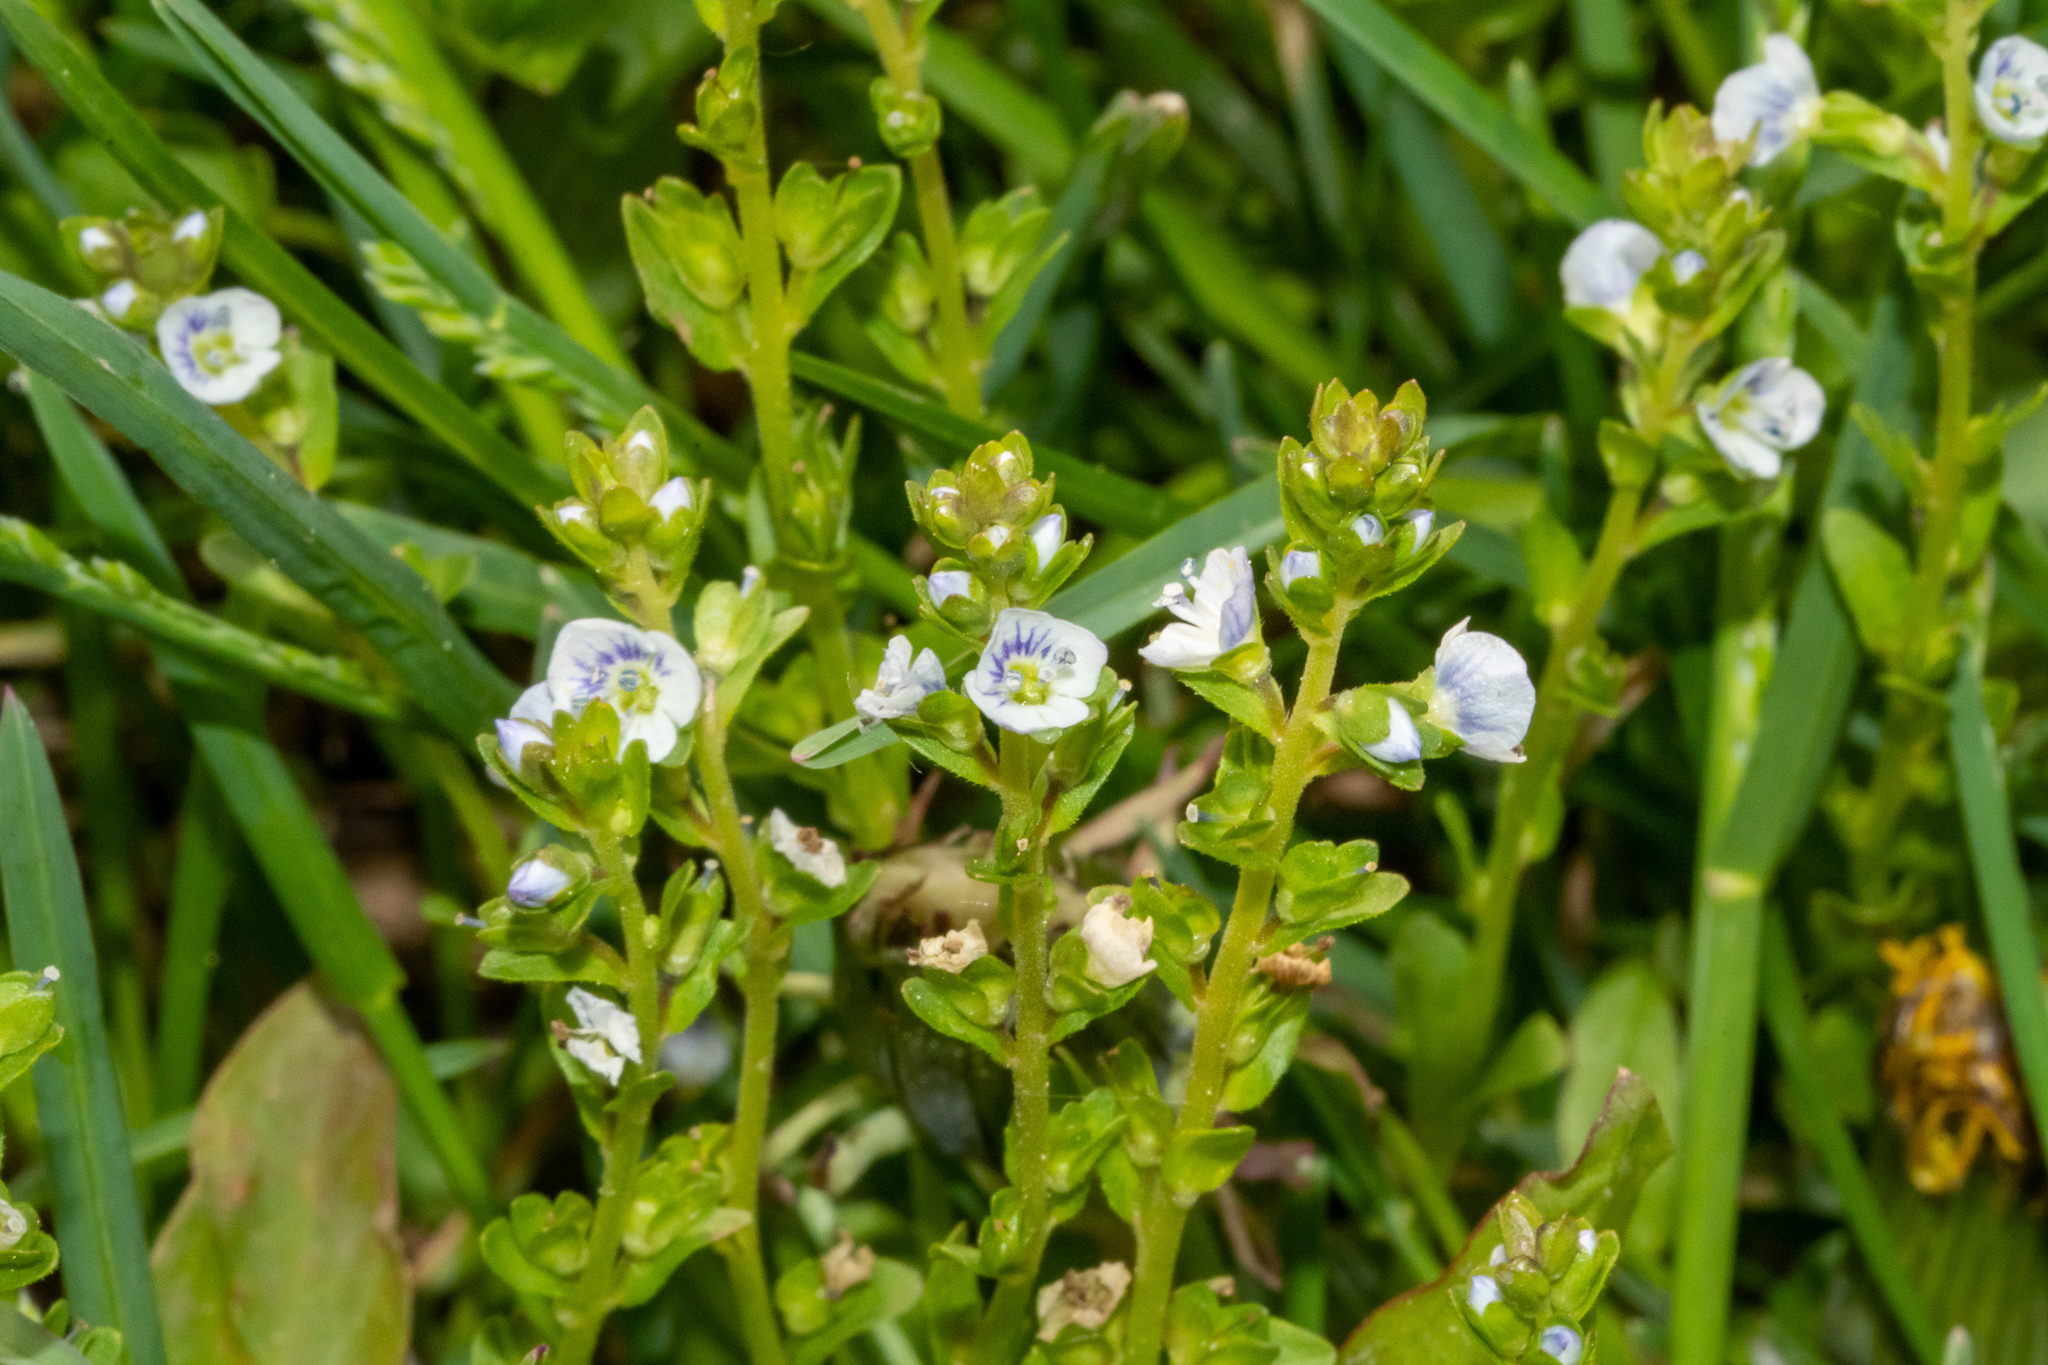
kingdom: Plantae
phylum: Tracheophyta
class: Magnoliopsida
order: Lamiales
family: Plantaginaceae
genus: Veronica
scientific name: Veronica serpyllifolia
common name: Thyme-leaved speedwell
